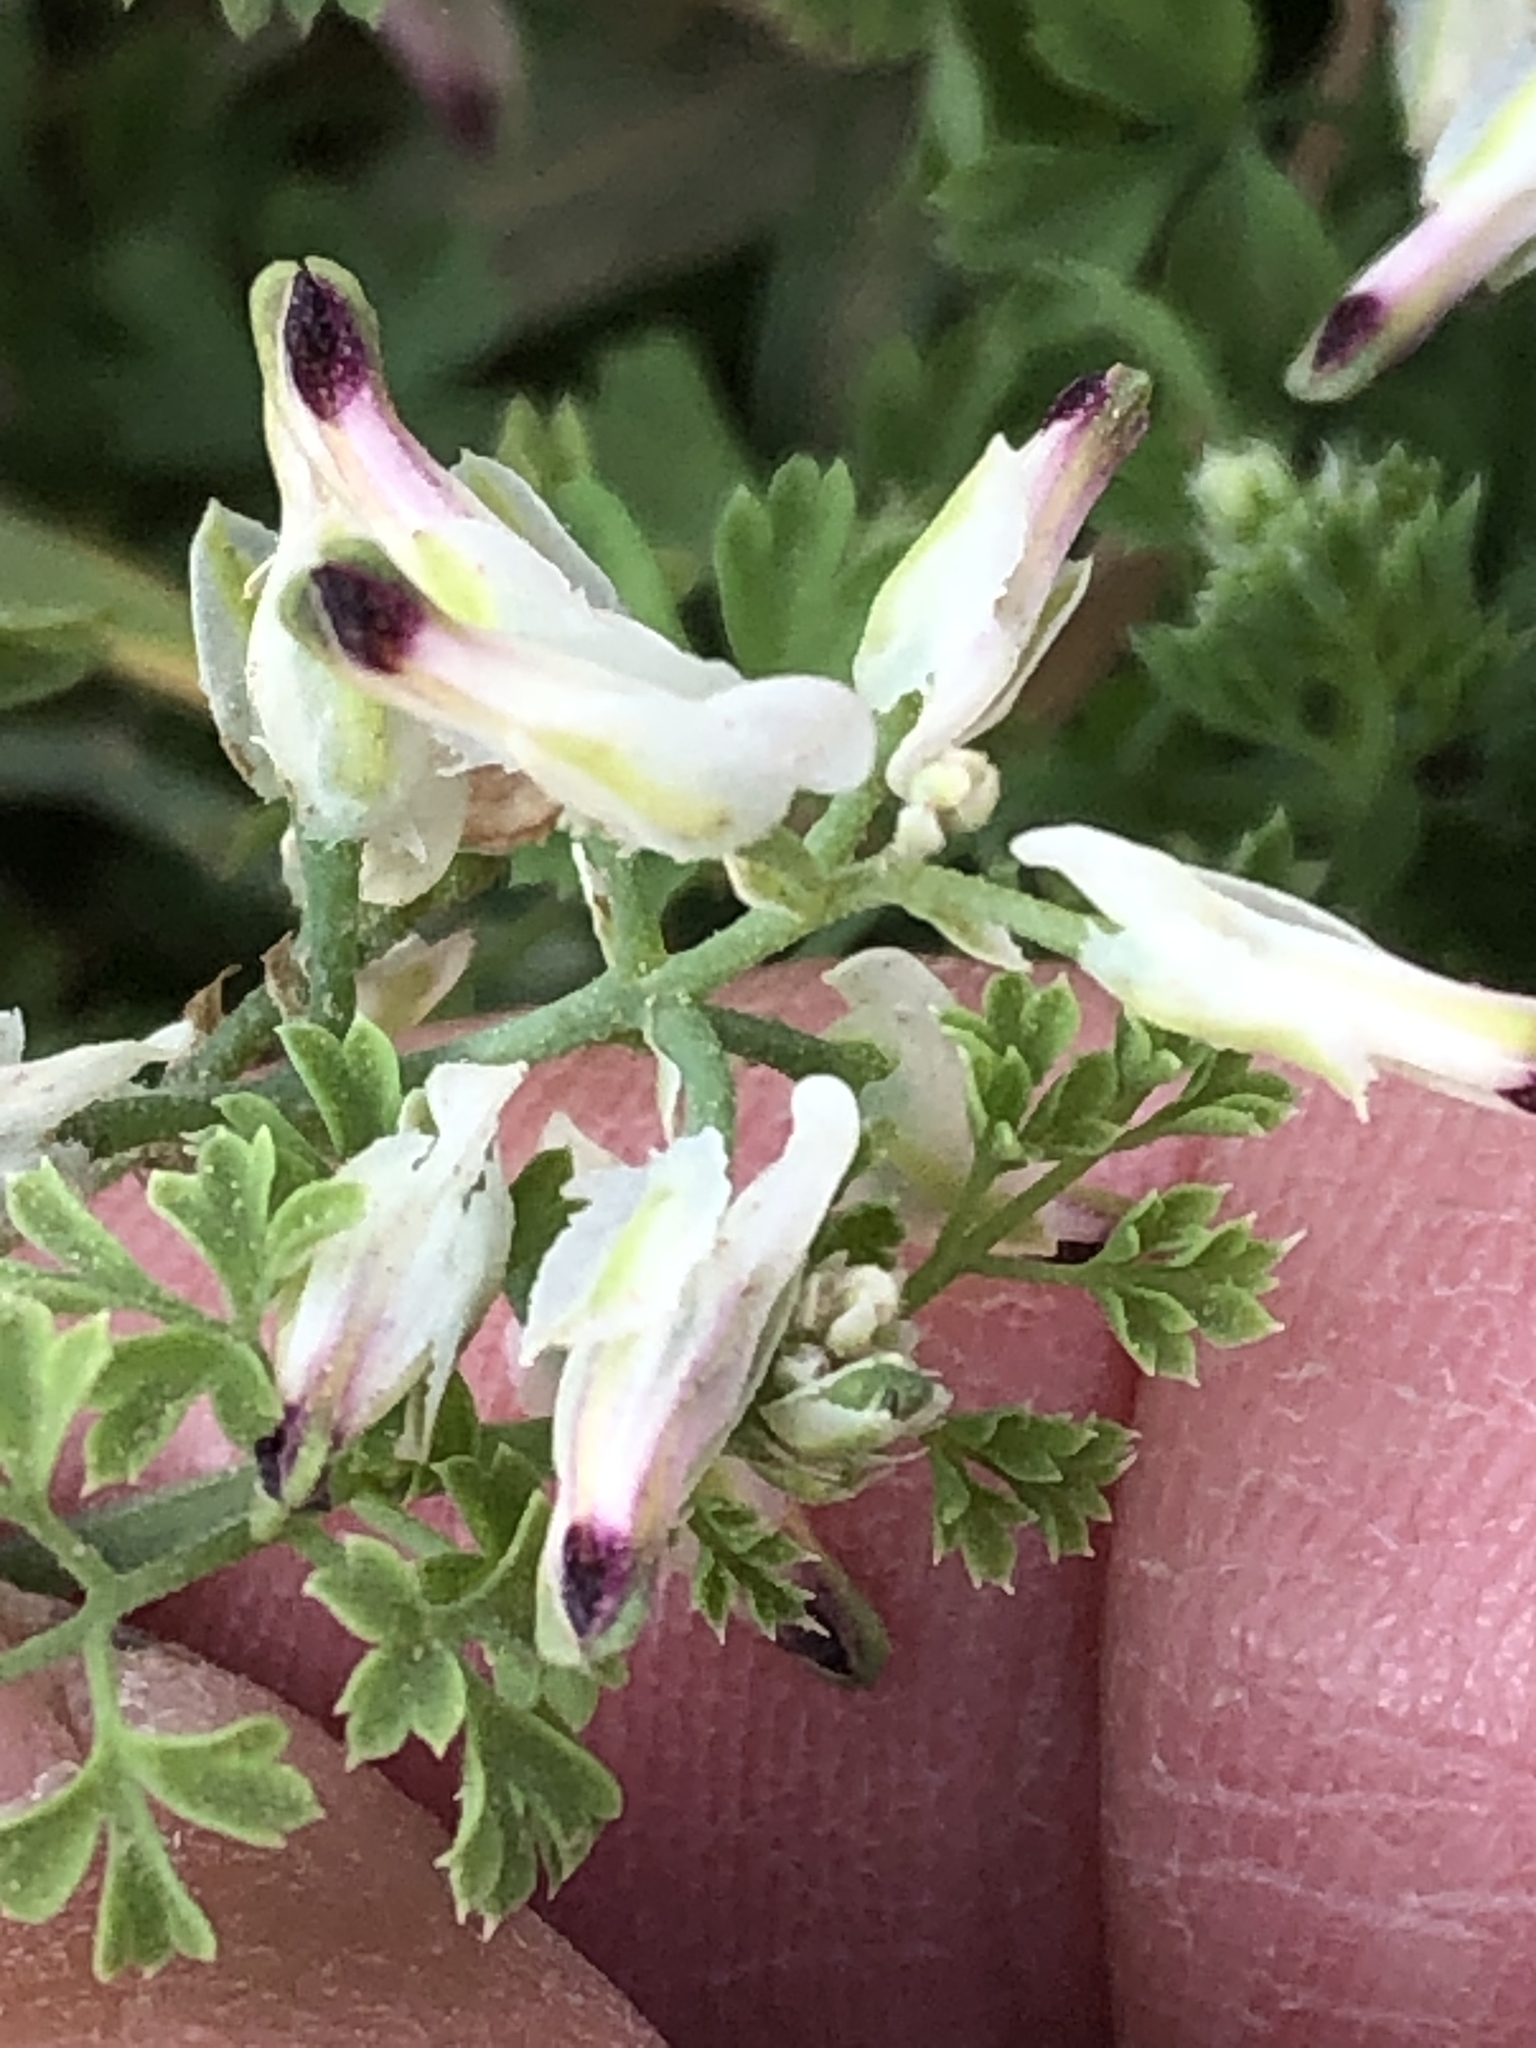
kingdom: Plantae
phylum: Tracheophyta
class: Magnoliopsida
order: Ranunculales
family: Papaveraceae
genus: Fumaria
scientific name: Fumaria capreolata
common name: White ramping-fumitory
